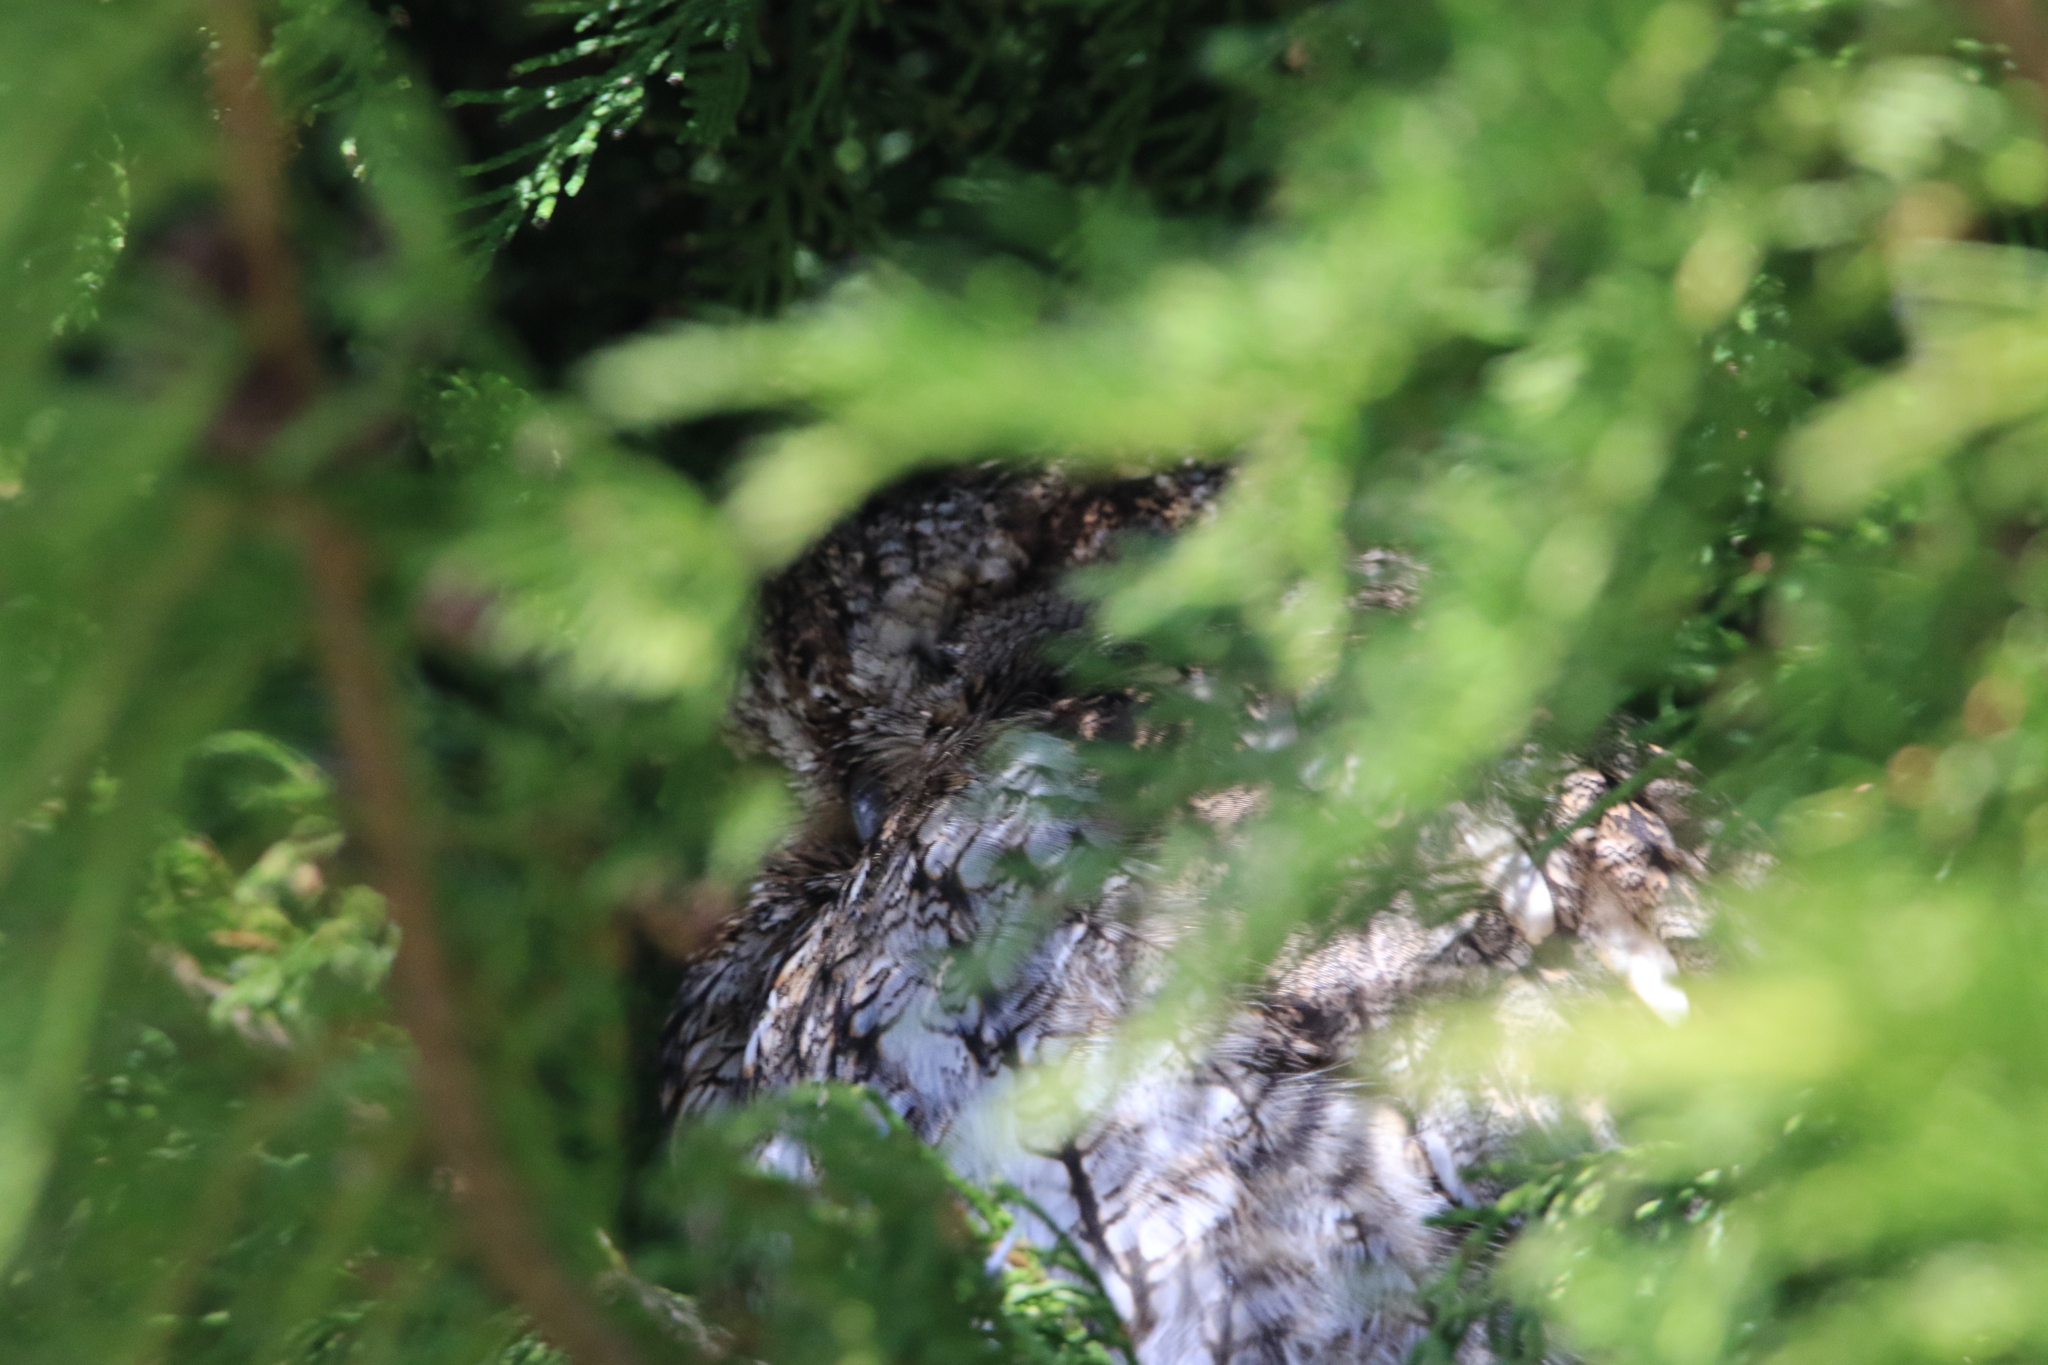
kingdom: Animalia
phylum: Chordata
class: Aves
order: Strigiformes
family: Strigidae
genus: Megascops
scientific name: Megascops kennicottii
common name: Western screech-owl
